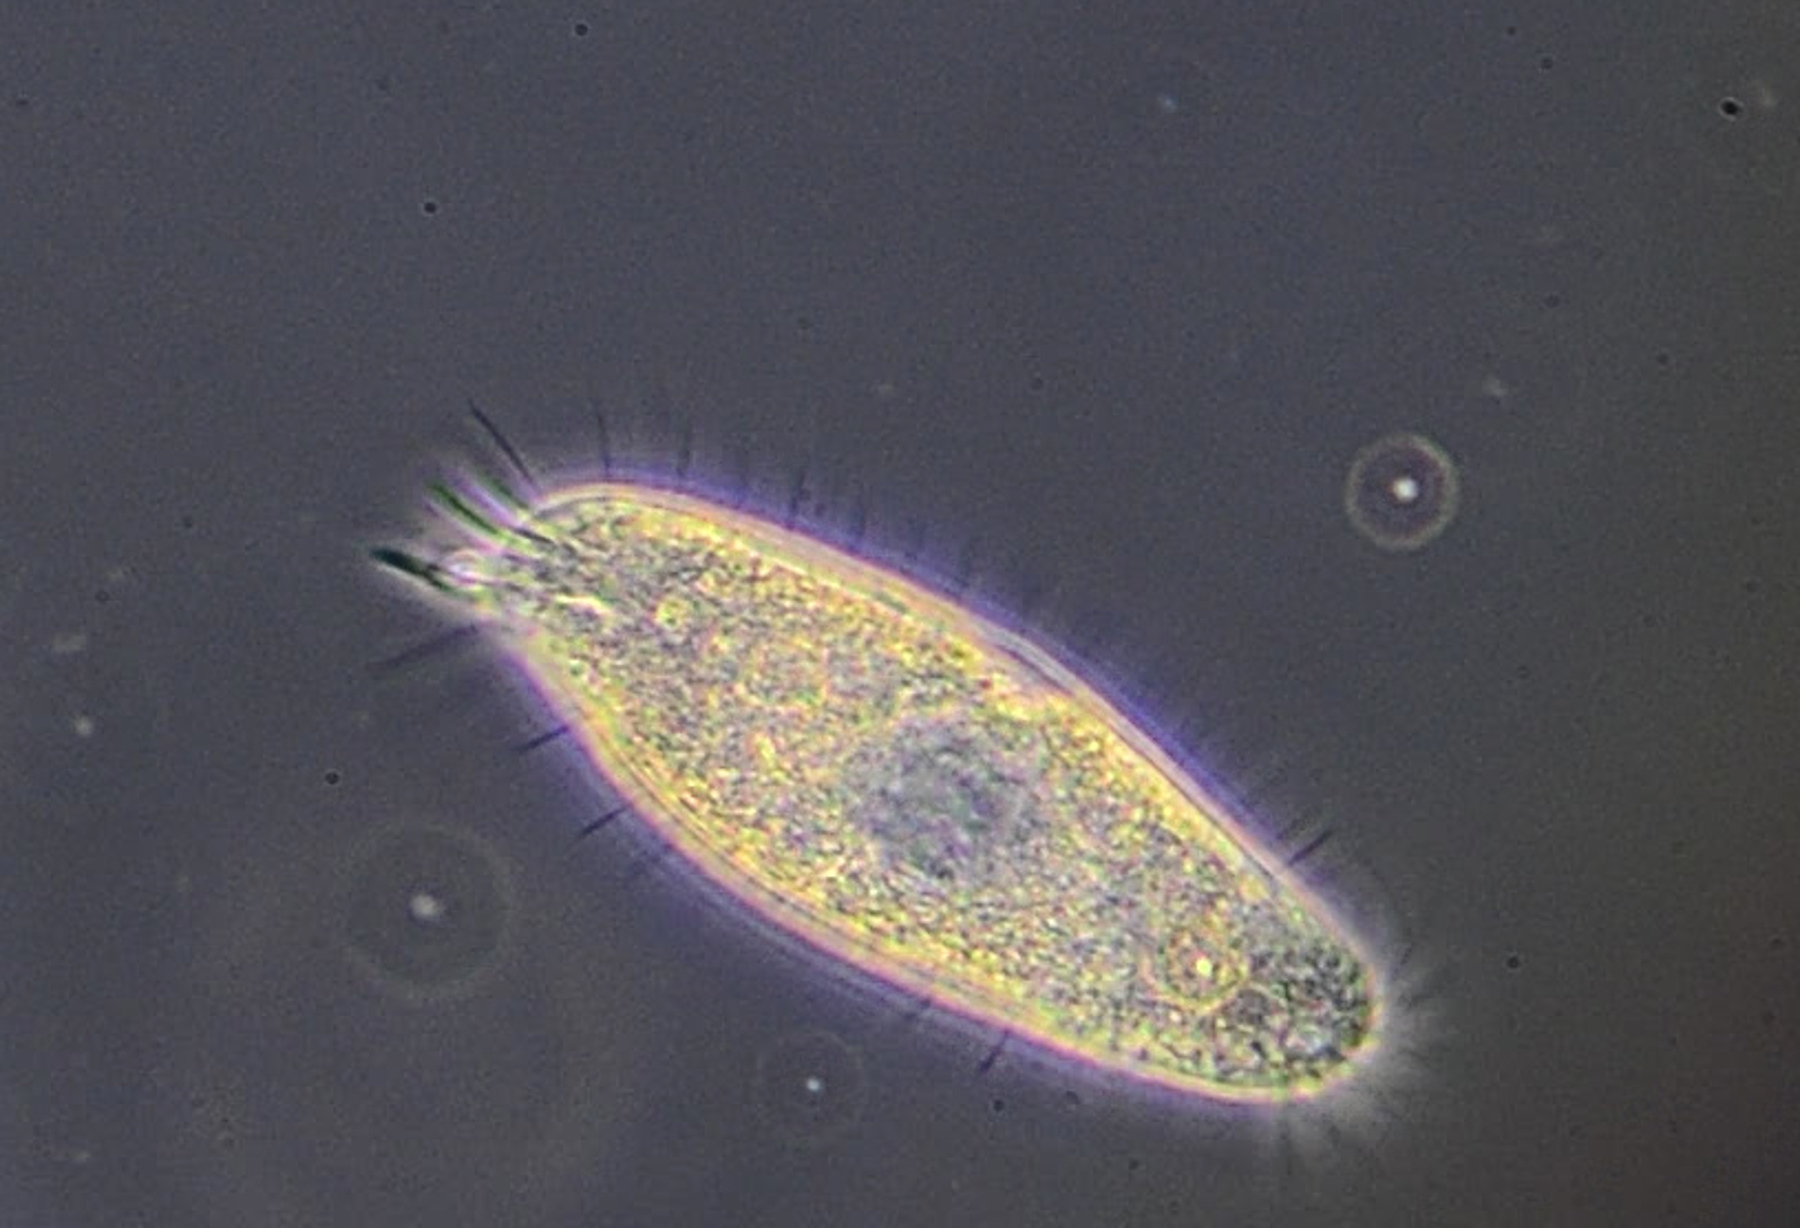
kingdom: Chromista
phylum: Ciliophora
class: Hypotrichea
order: Oxytrichida
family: Oxytrichidae
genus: Tachysoma
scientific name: Tachysoma pellionellum
